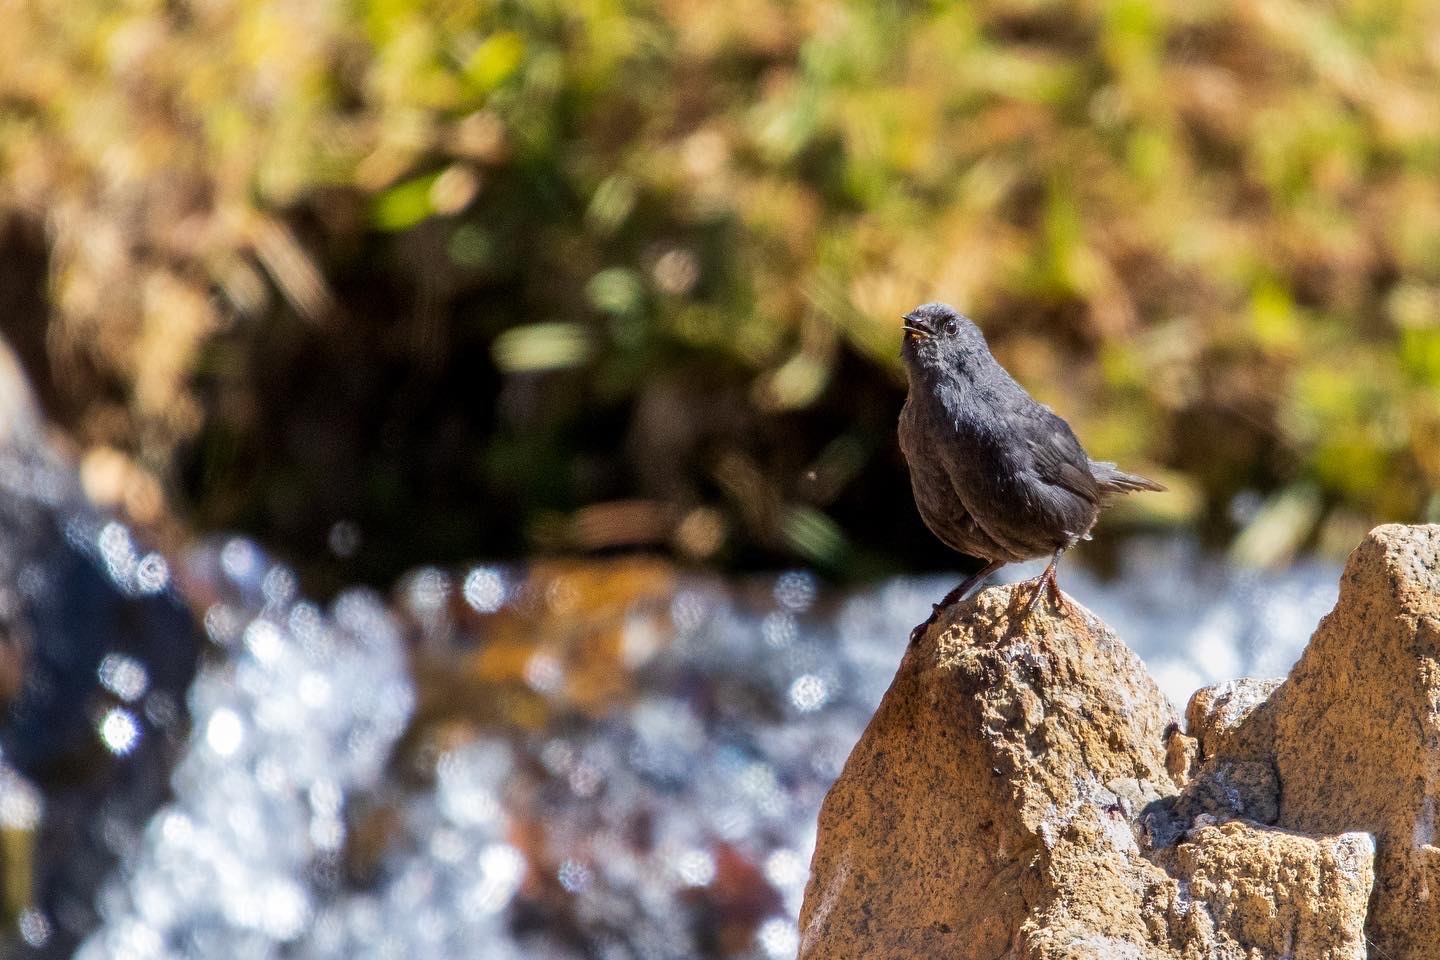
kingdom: Animalia
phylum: Chordata
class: Aves
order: Passeriformes
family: Rhinocryptidae
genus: Scytalopus
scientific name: Scytalopus magellanicus
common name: Magellanic tapaculo
